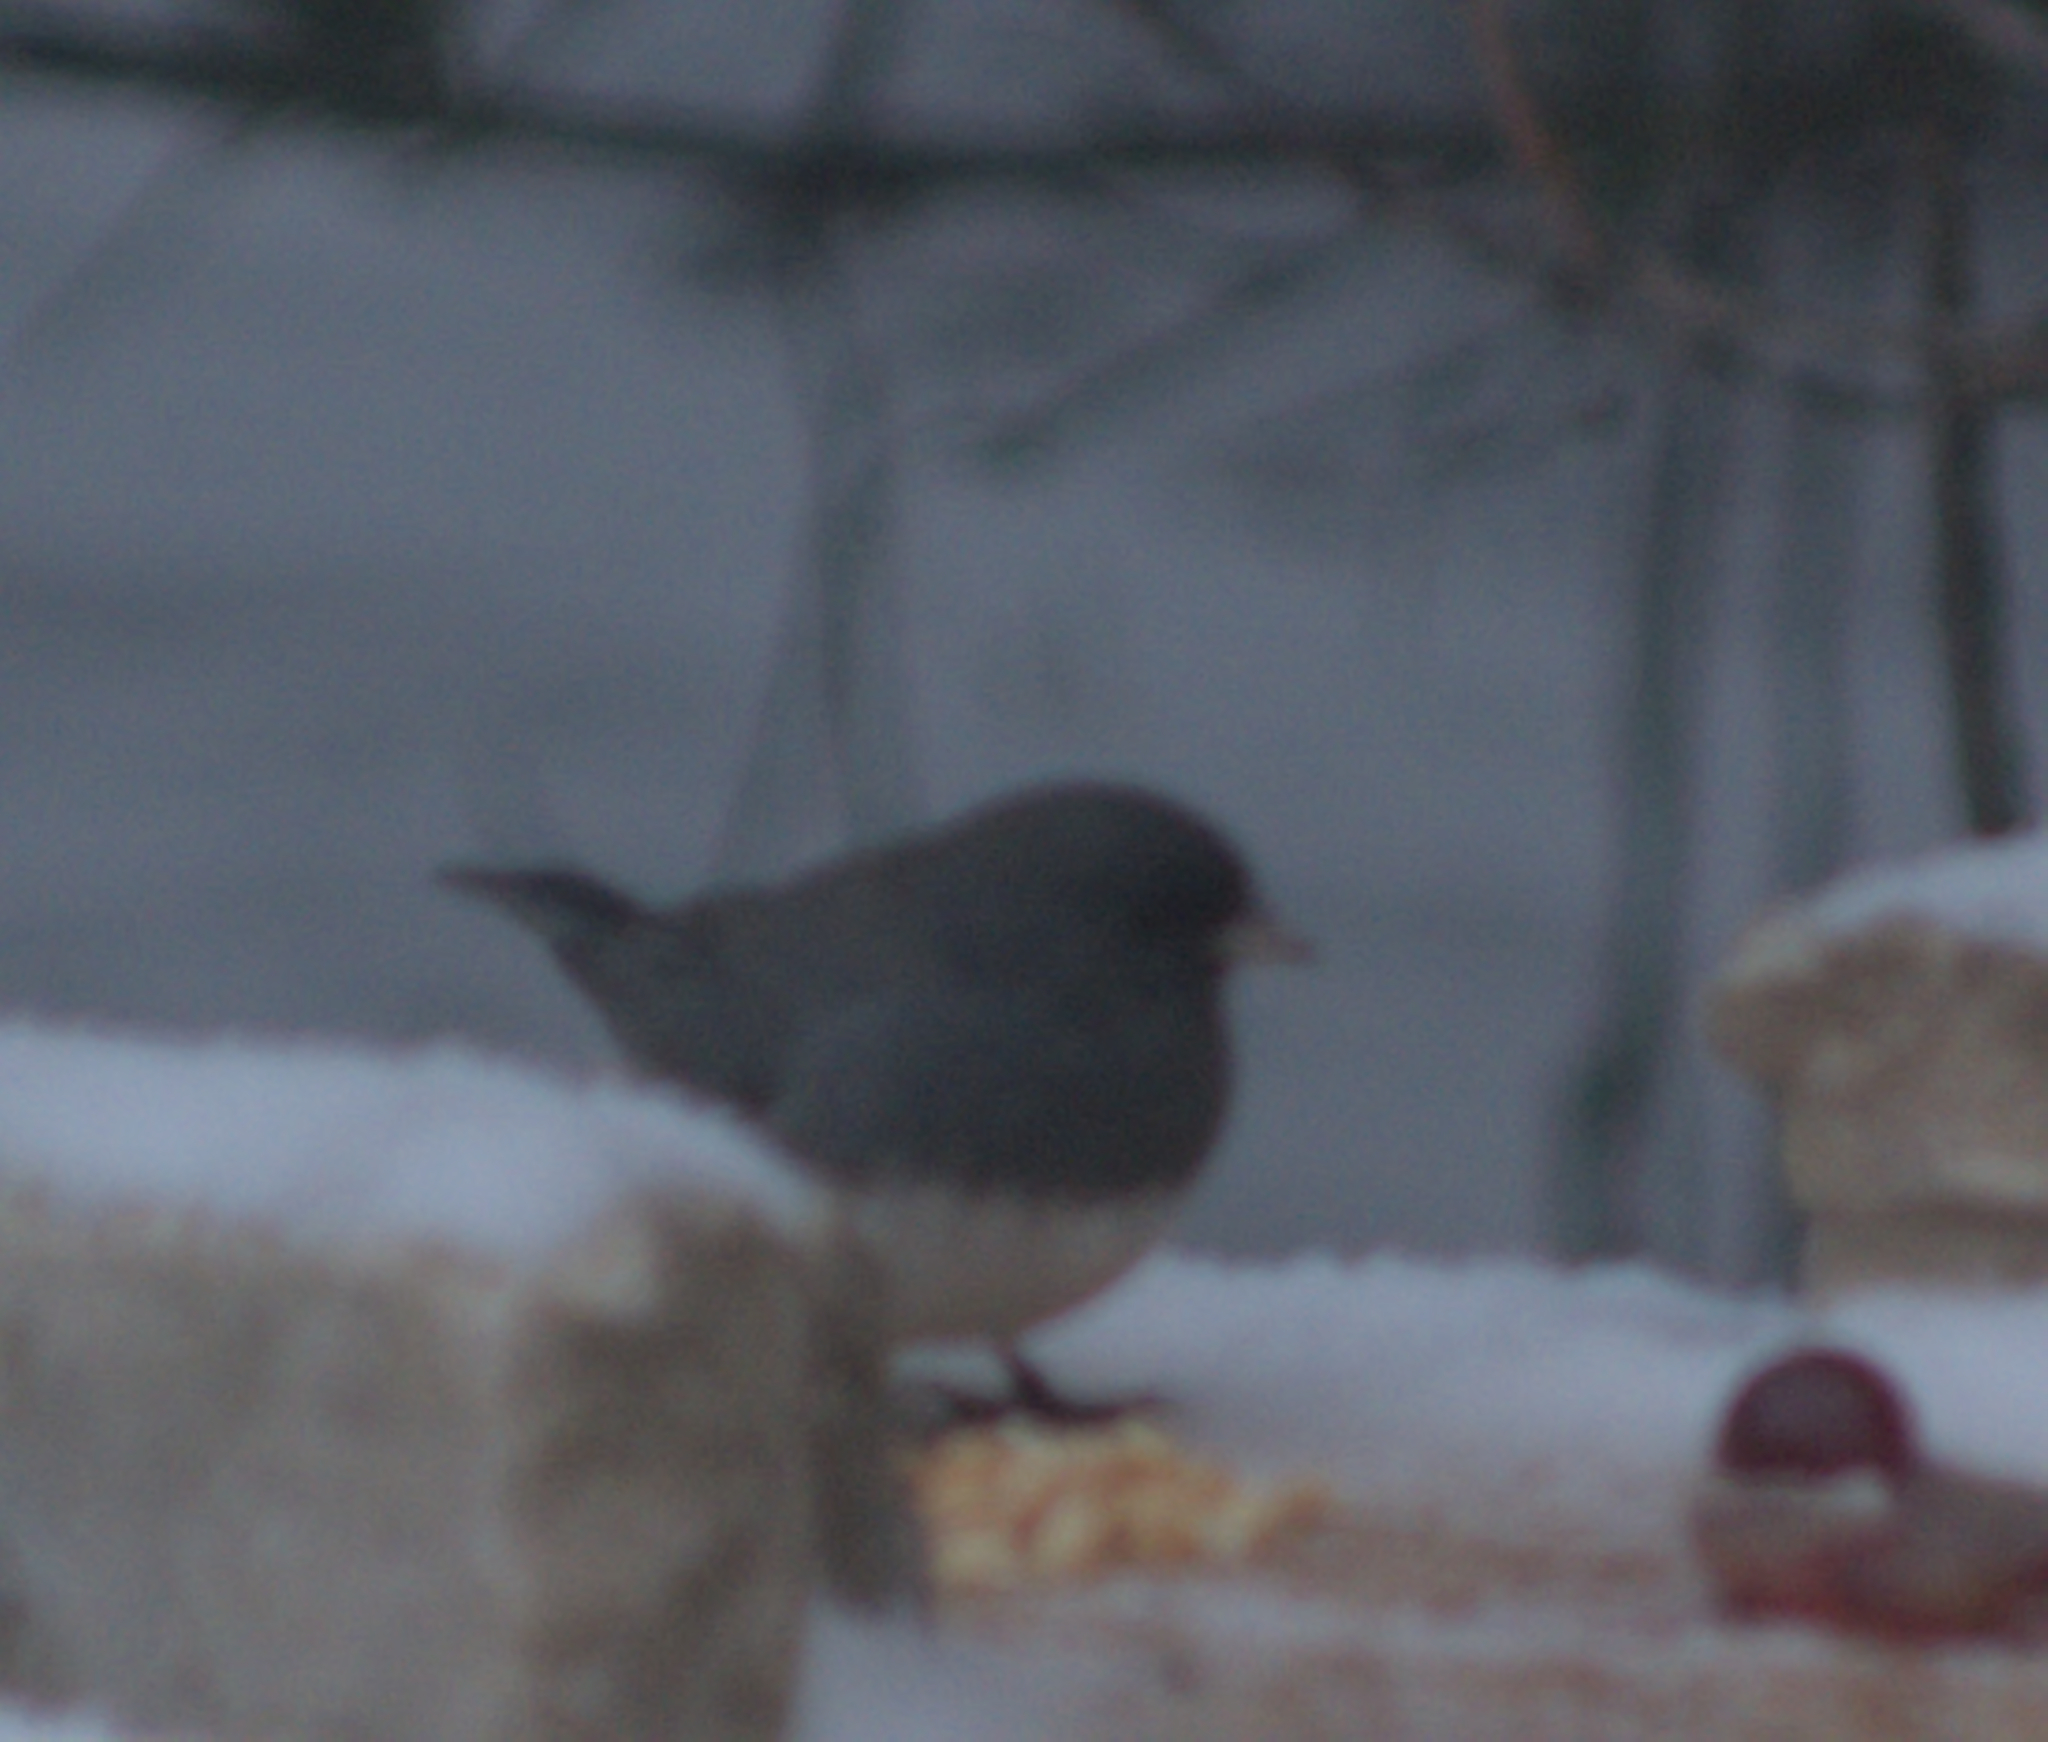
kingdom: Animalia
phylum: Chordata
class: Aves
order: Passeriformes
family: Passerellidae
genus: Junco
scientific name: Junco hyemalis
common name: Dark-eyed junco
